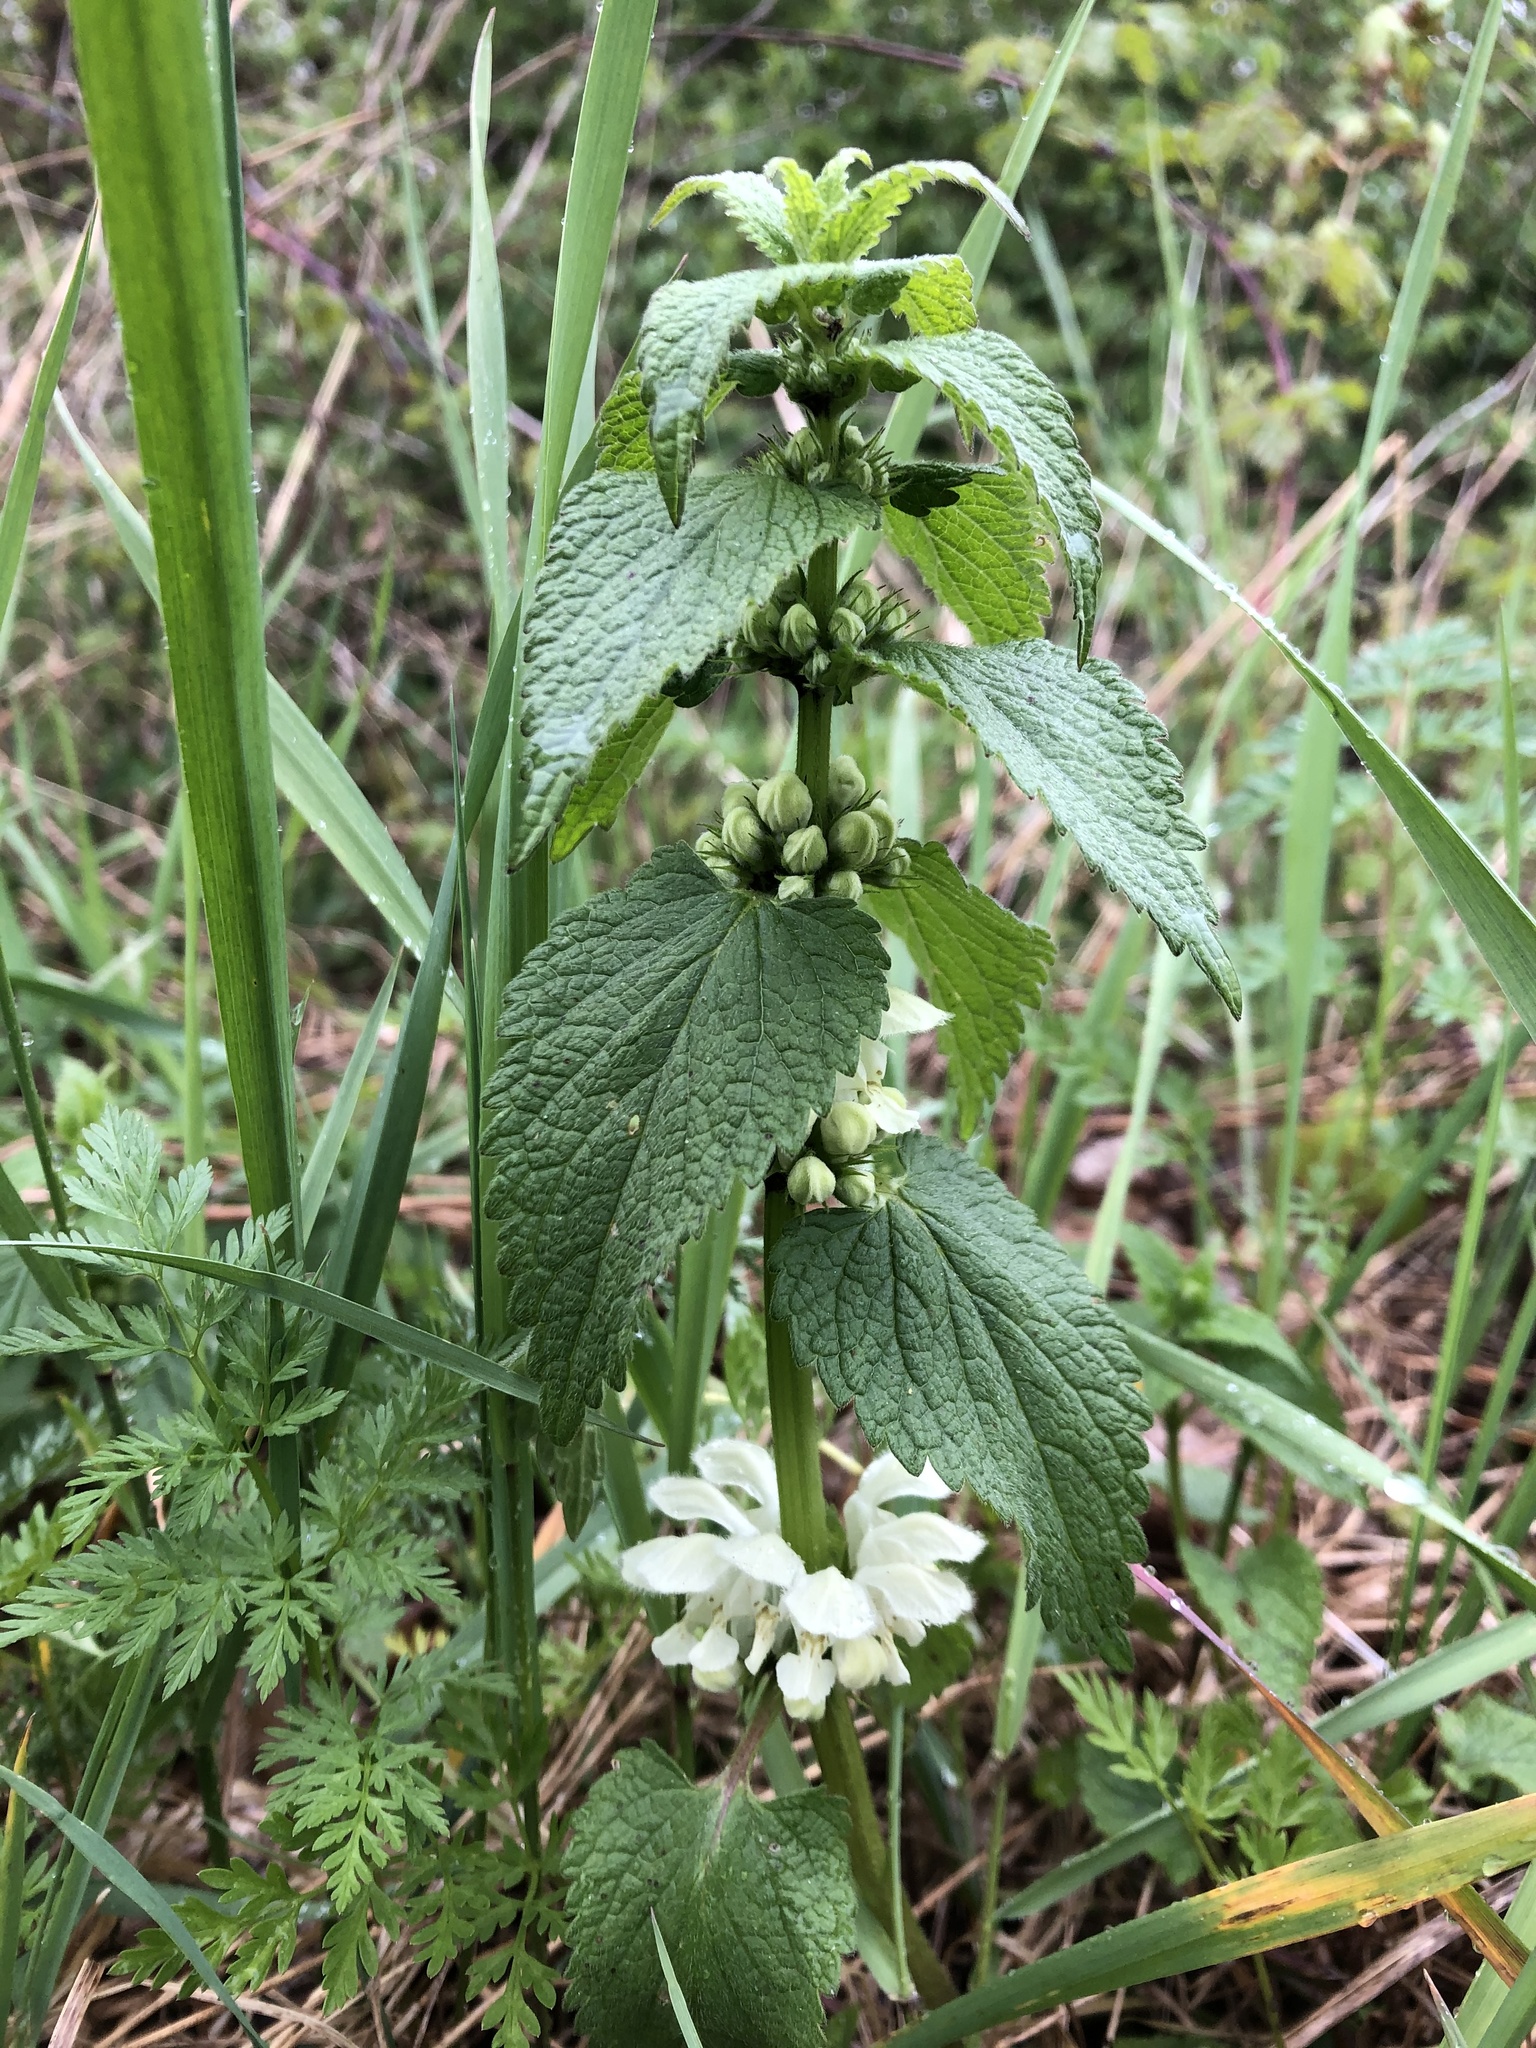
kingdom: Plantae
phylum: Tracheophyta
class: Magnoliopsida
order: Lamiales
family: Lamiaceae
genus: Lamium
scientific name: Lamium album
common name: White dead-nettle
